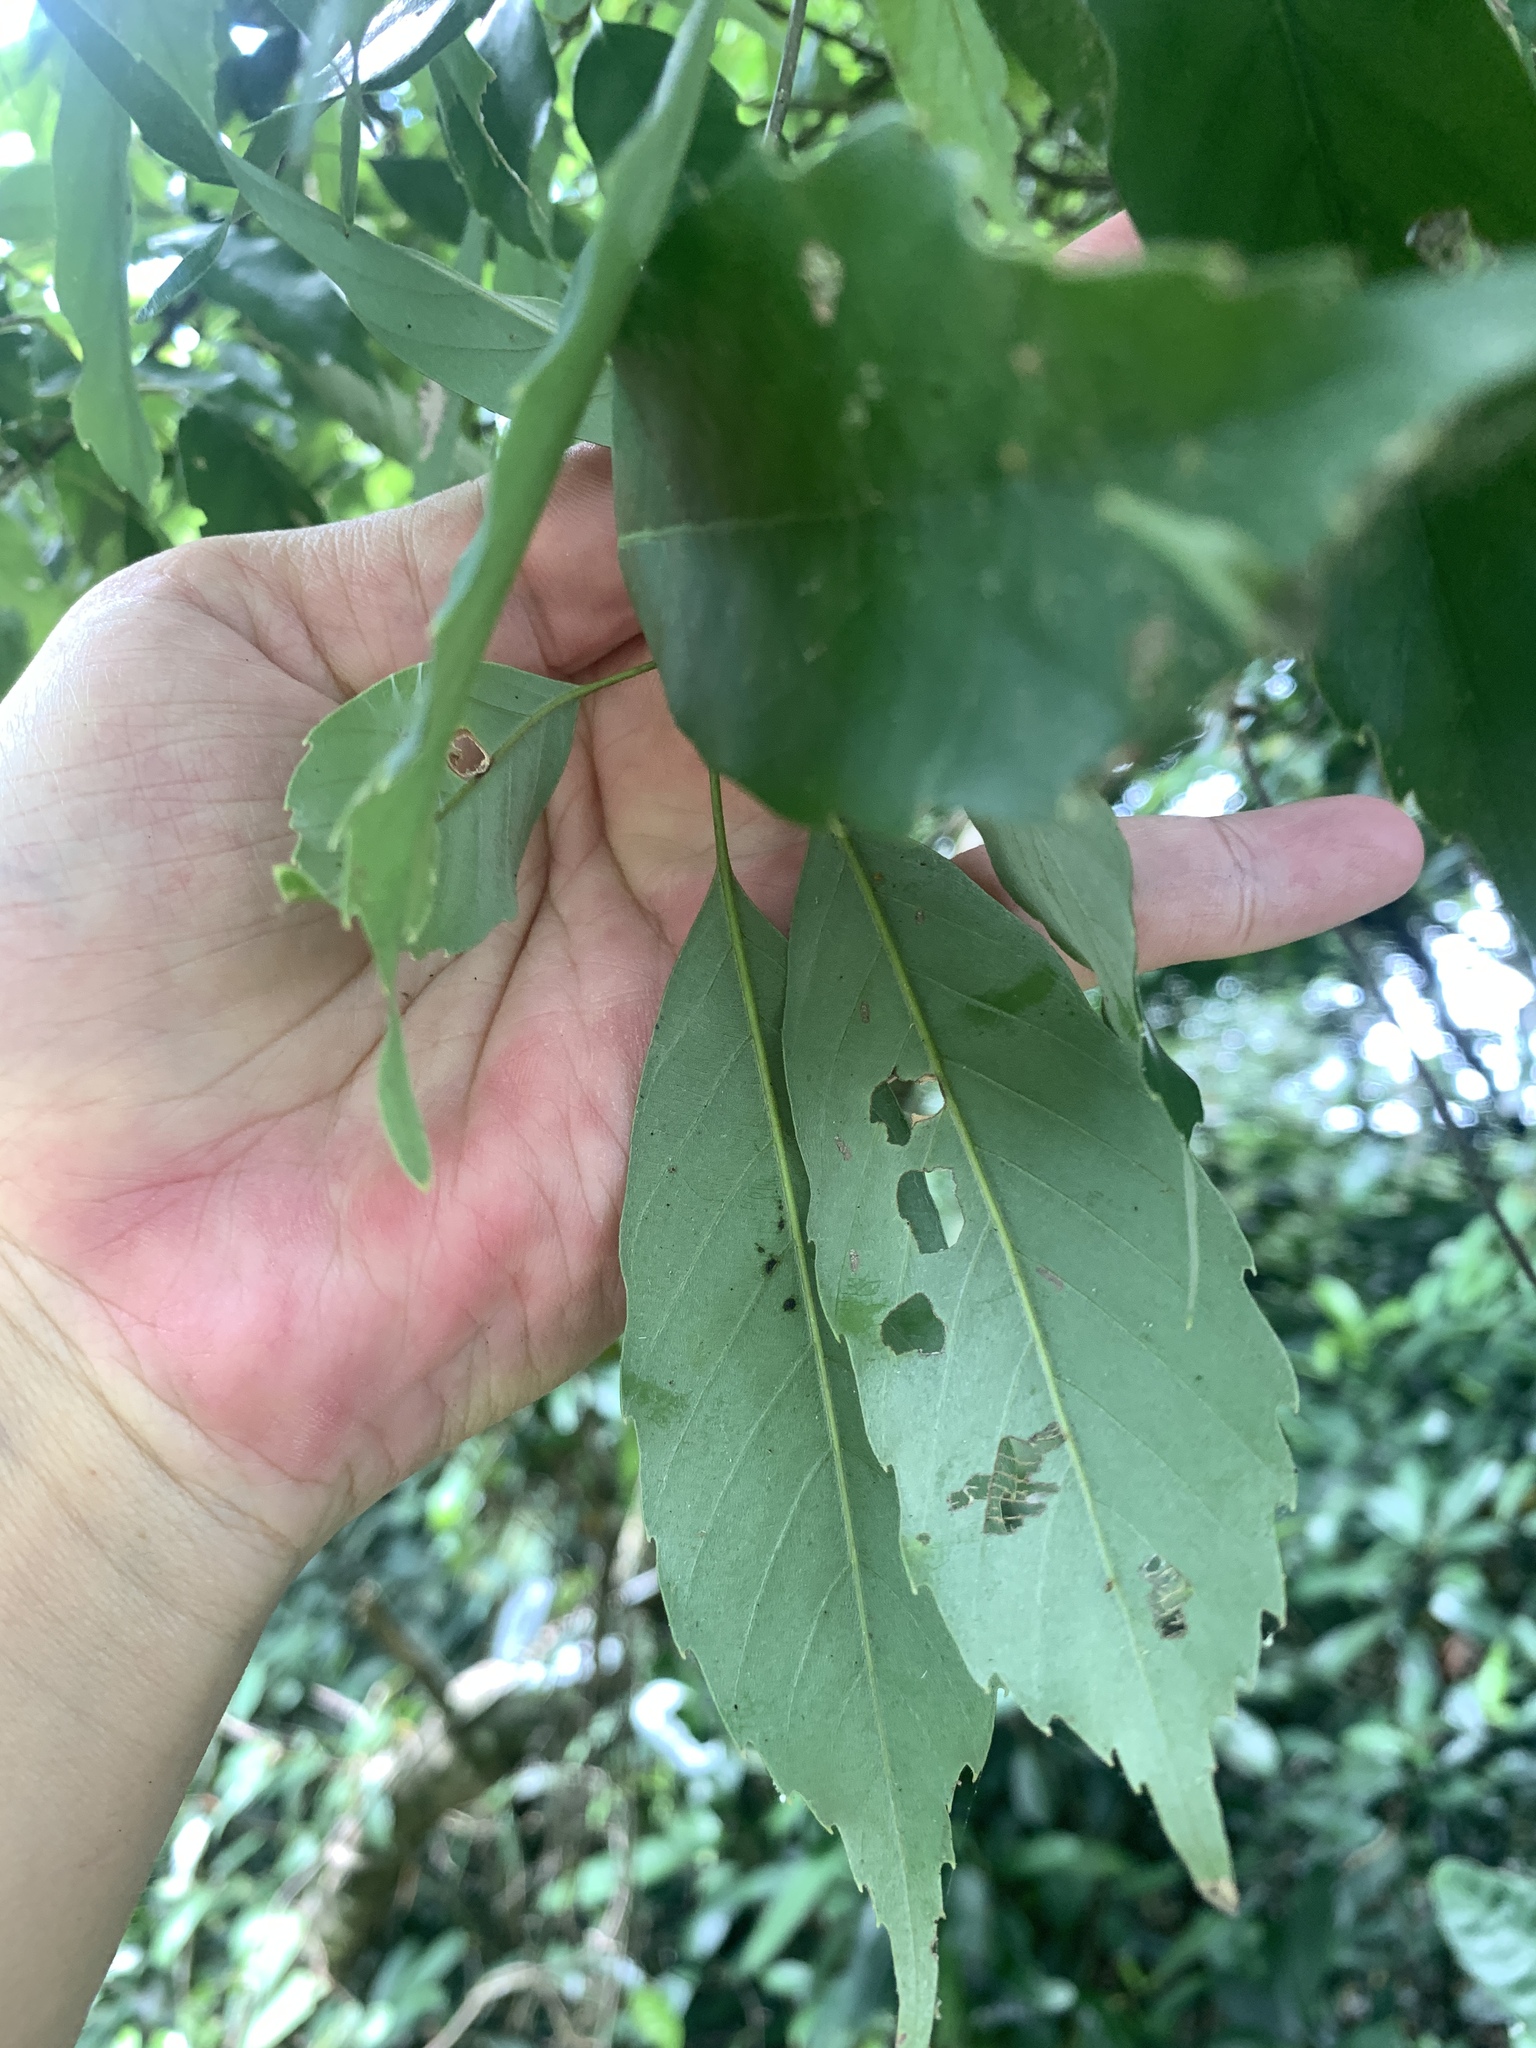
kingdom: Plantae
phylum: Tracheophyta
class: Magnoliopsida
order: Fagales
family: Fagaceae
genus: Quercus
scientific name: Quercus glauca
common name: Ring-cup oak
